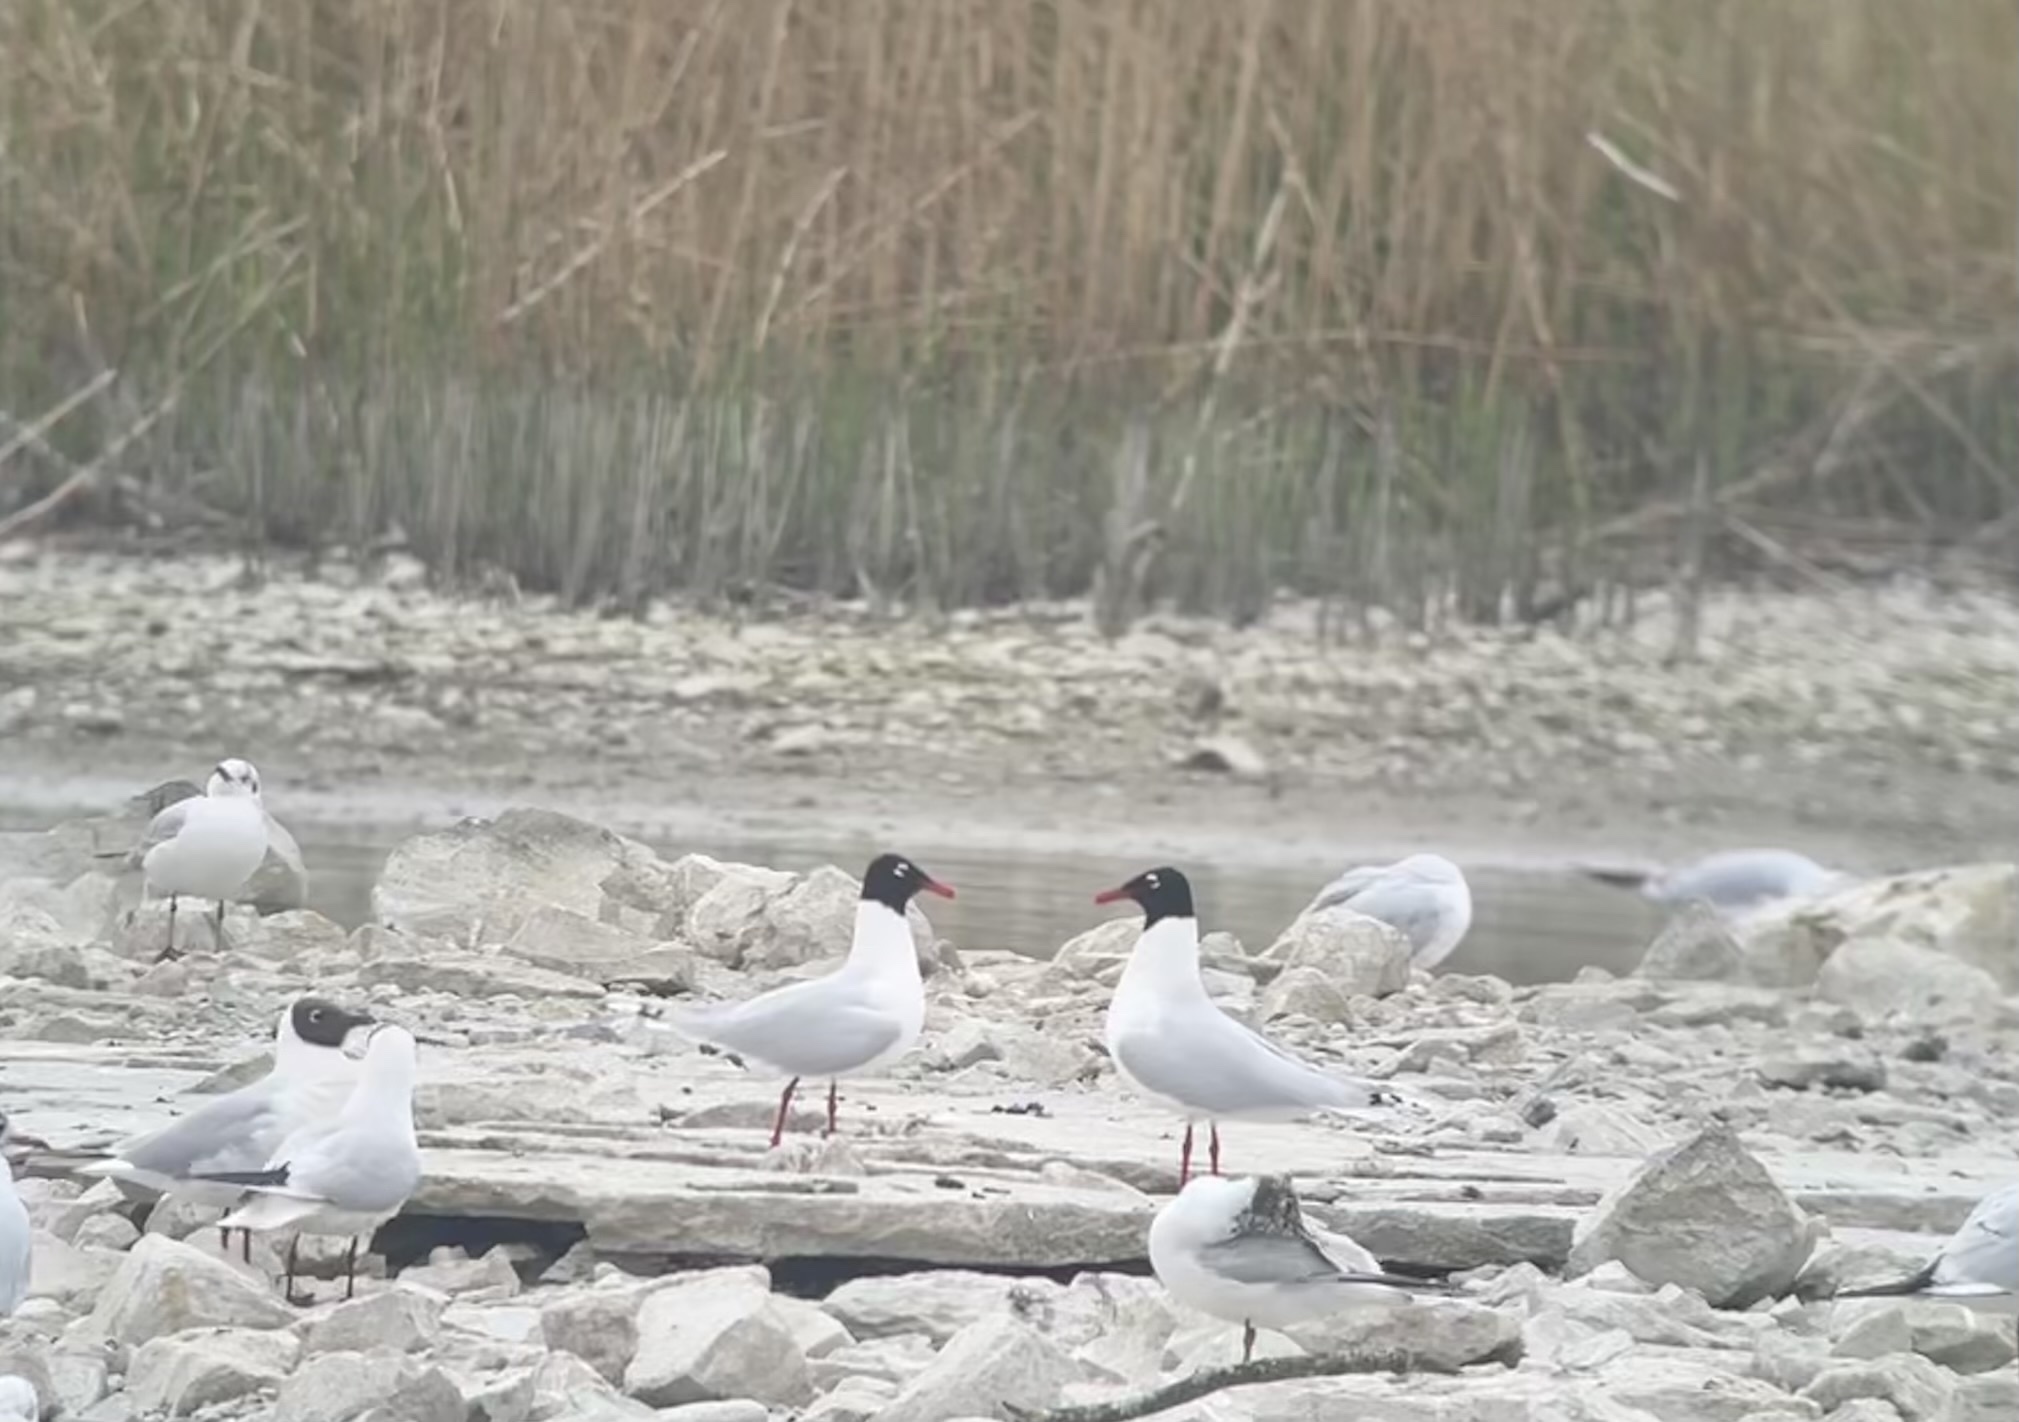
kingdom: Animalia
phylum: Chordata
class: Aves
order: Charadriiformes
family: Laridae
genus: Ichthyaetus
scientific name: Ichthyaetus melanocephalus
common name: Mediterranean gull
